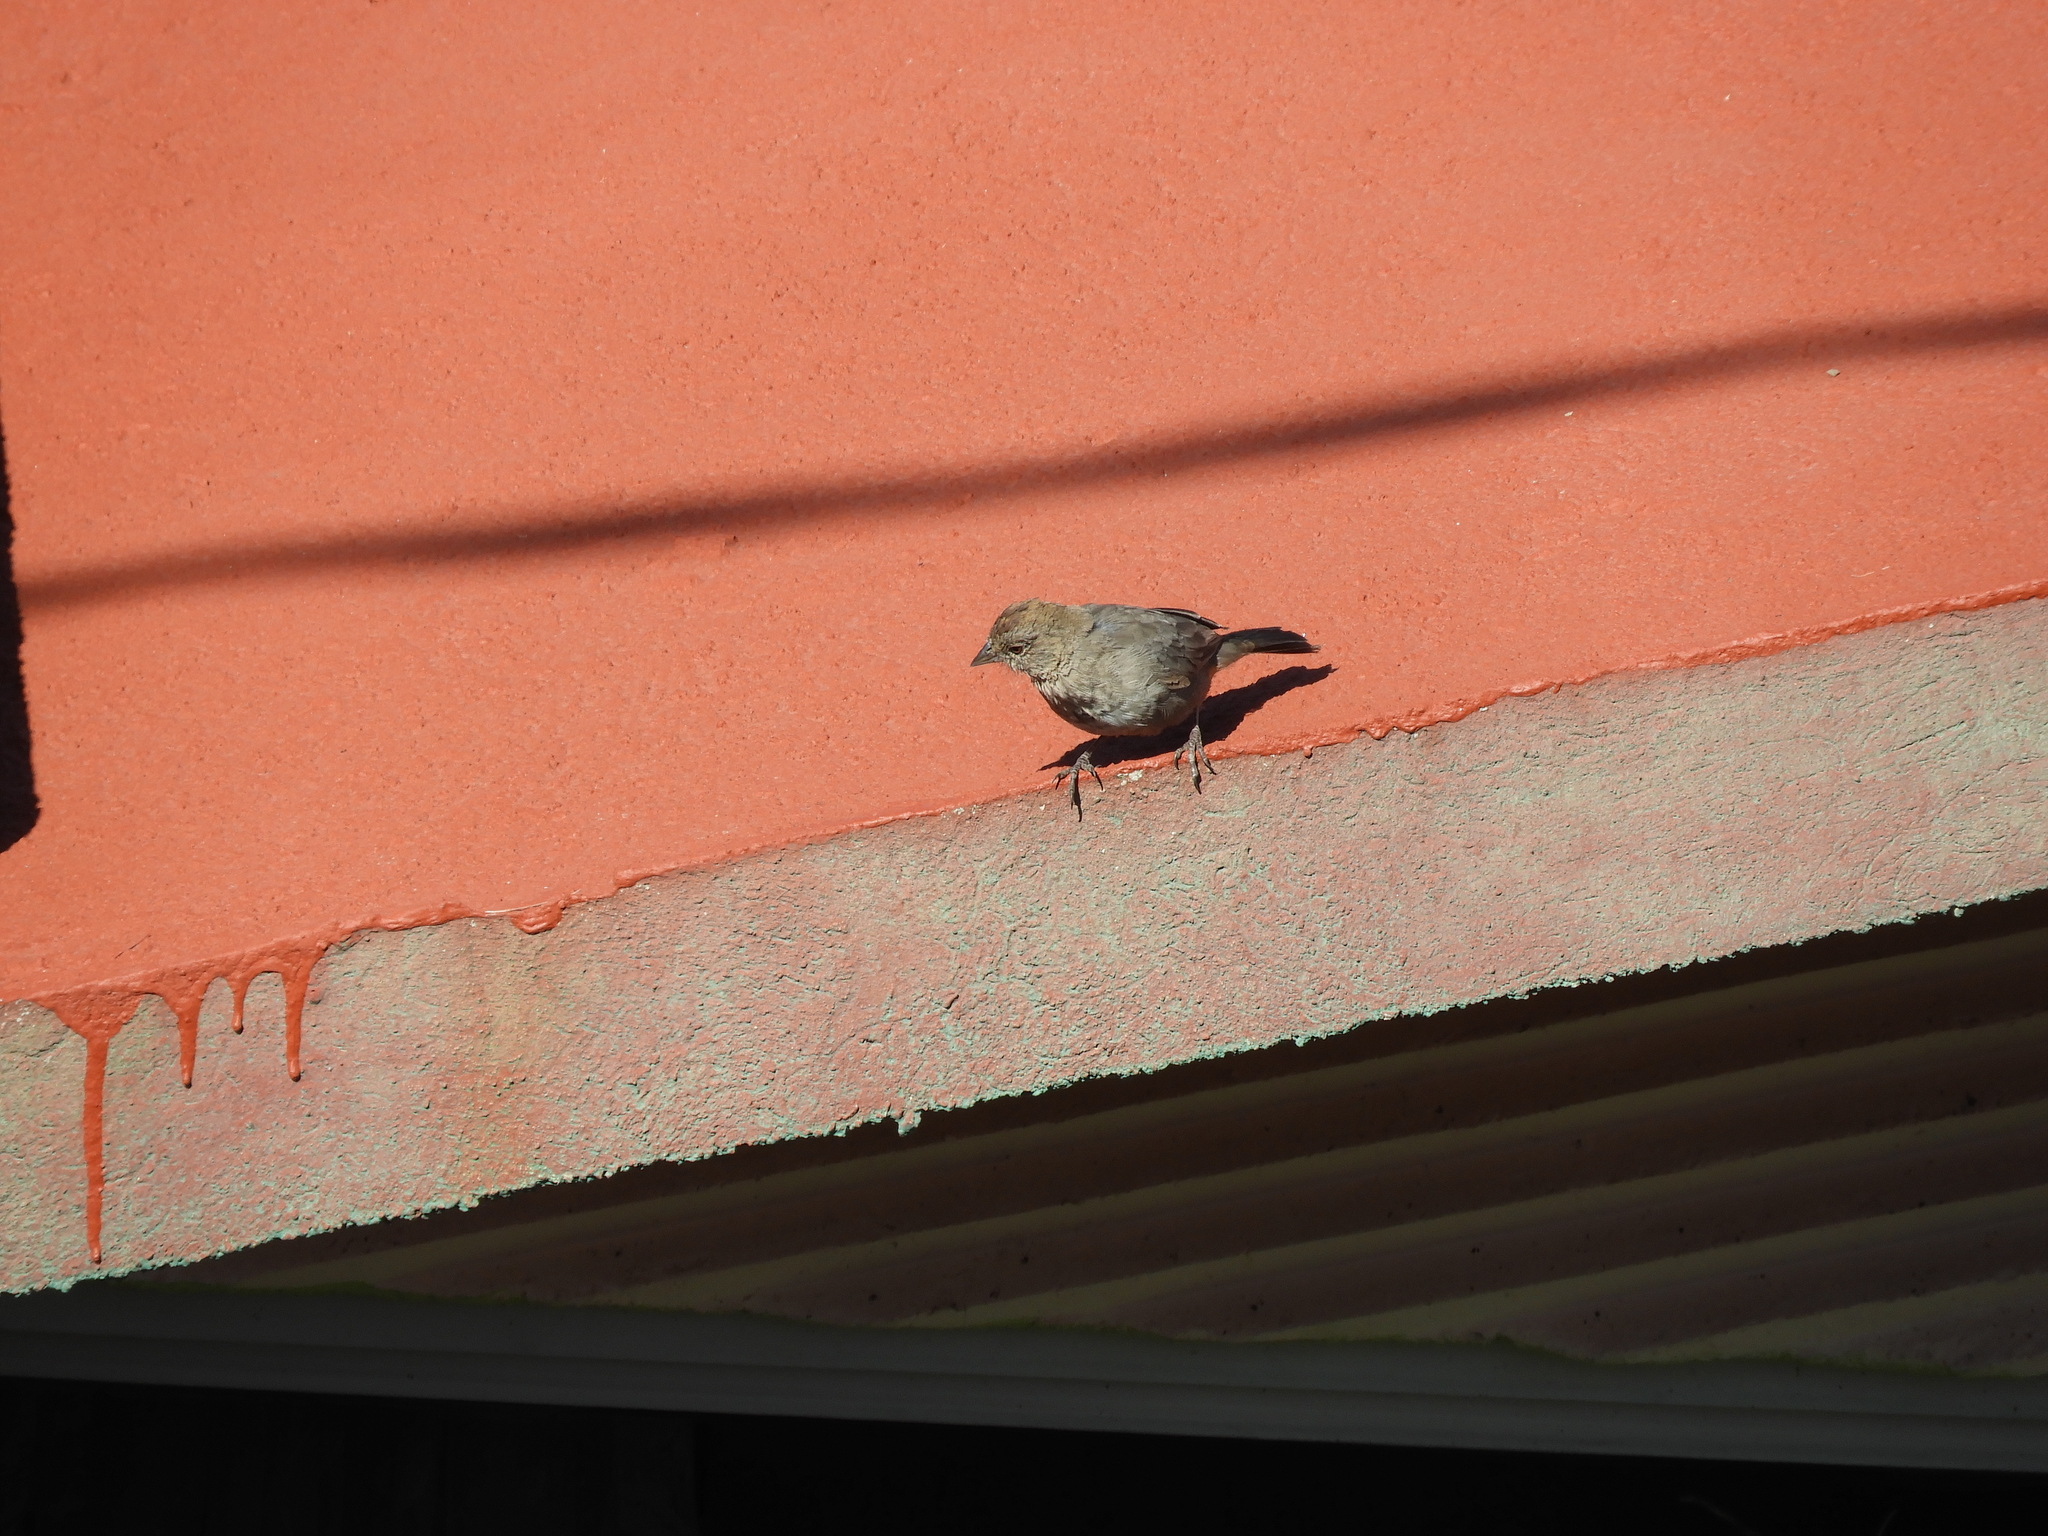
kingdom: Animalia
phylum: Chordata
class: Aves
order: Passeriformes
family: Passerellidae
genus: Melozone
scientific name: Melozone fusca
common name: Canyon towhee
